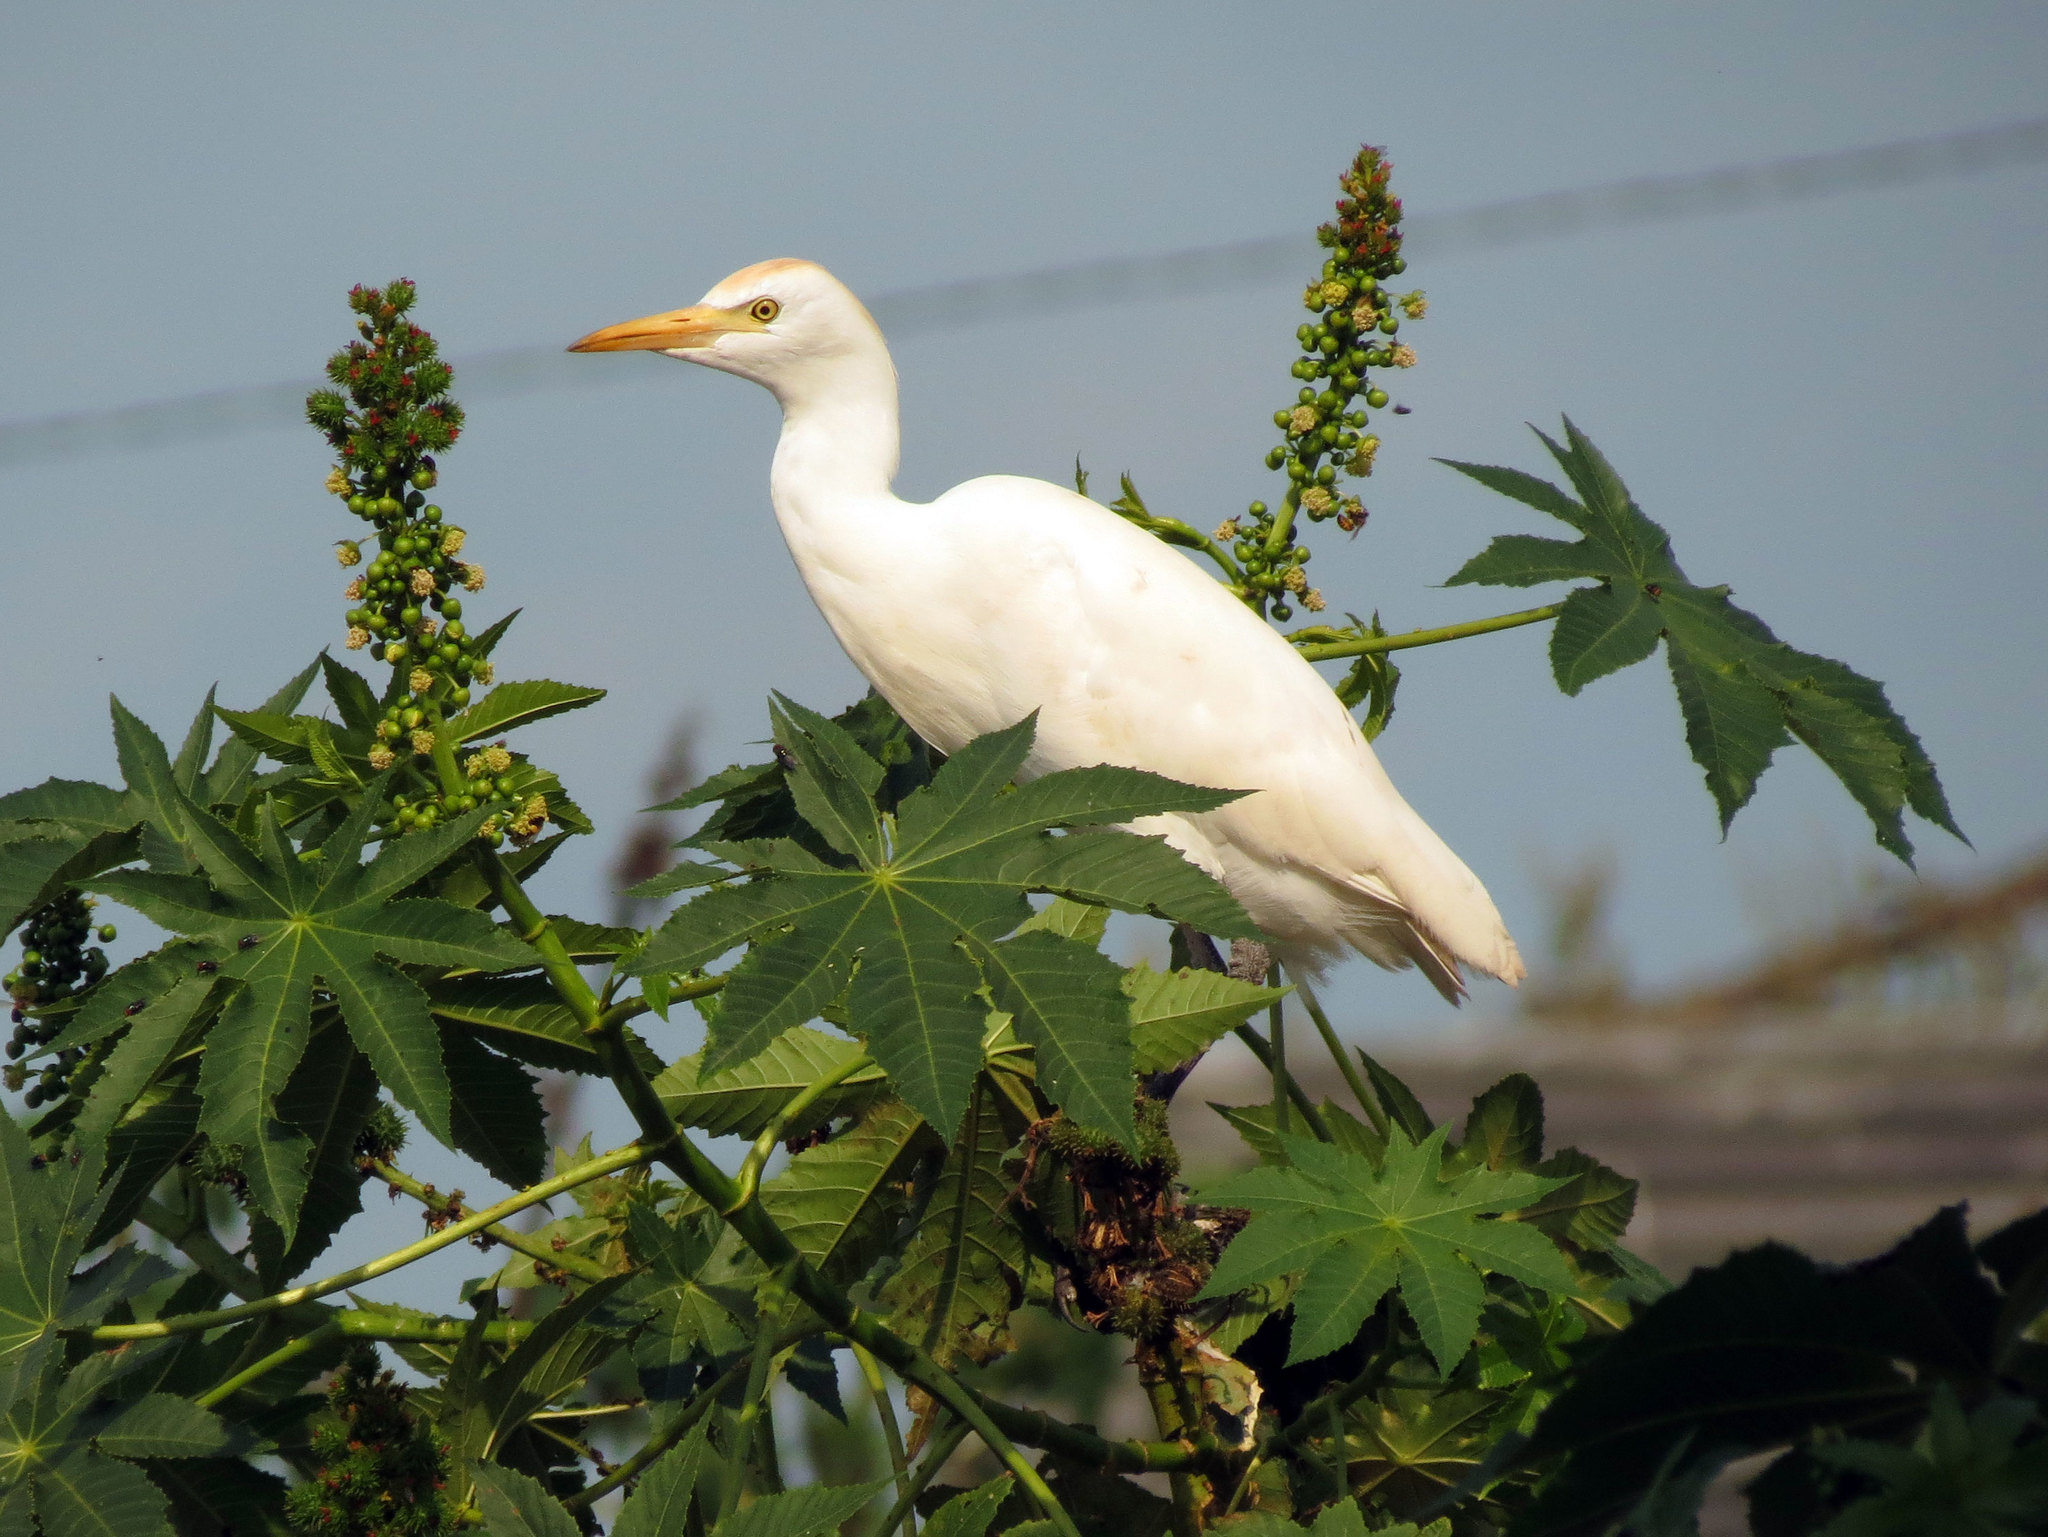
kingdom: Animalia
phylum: Chordata
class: Aves
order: Pelecaniformes
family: Ardeidae
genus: Bubulcus
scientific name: Bubulcus ibis
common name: Cattle egret
